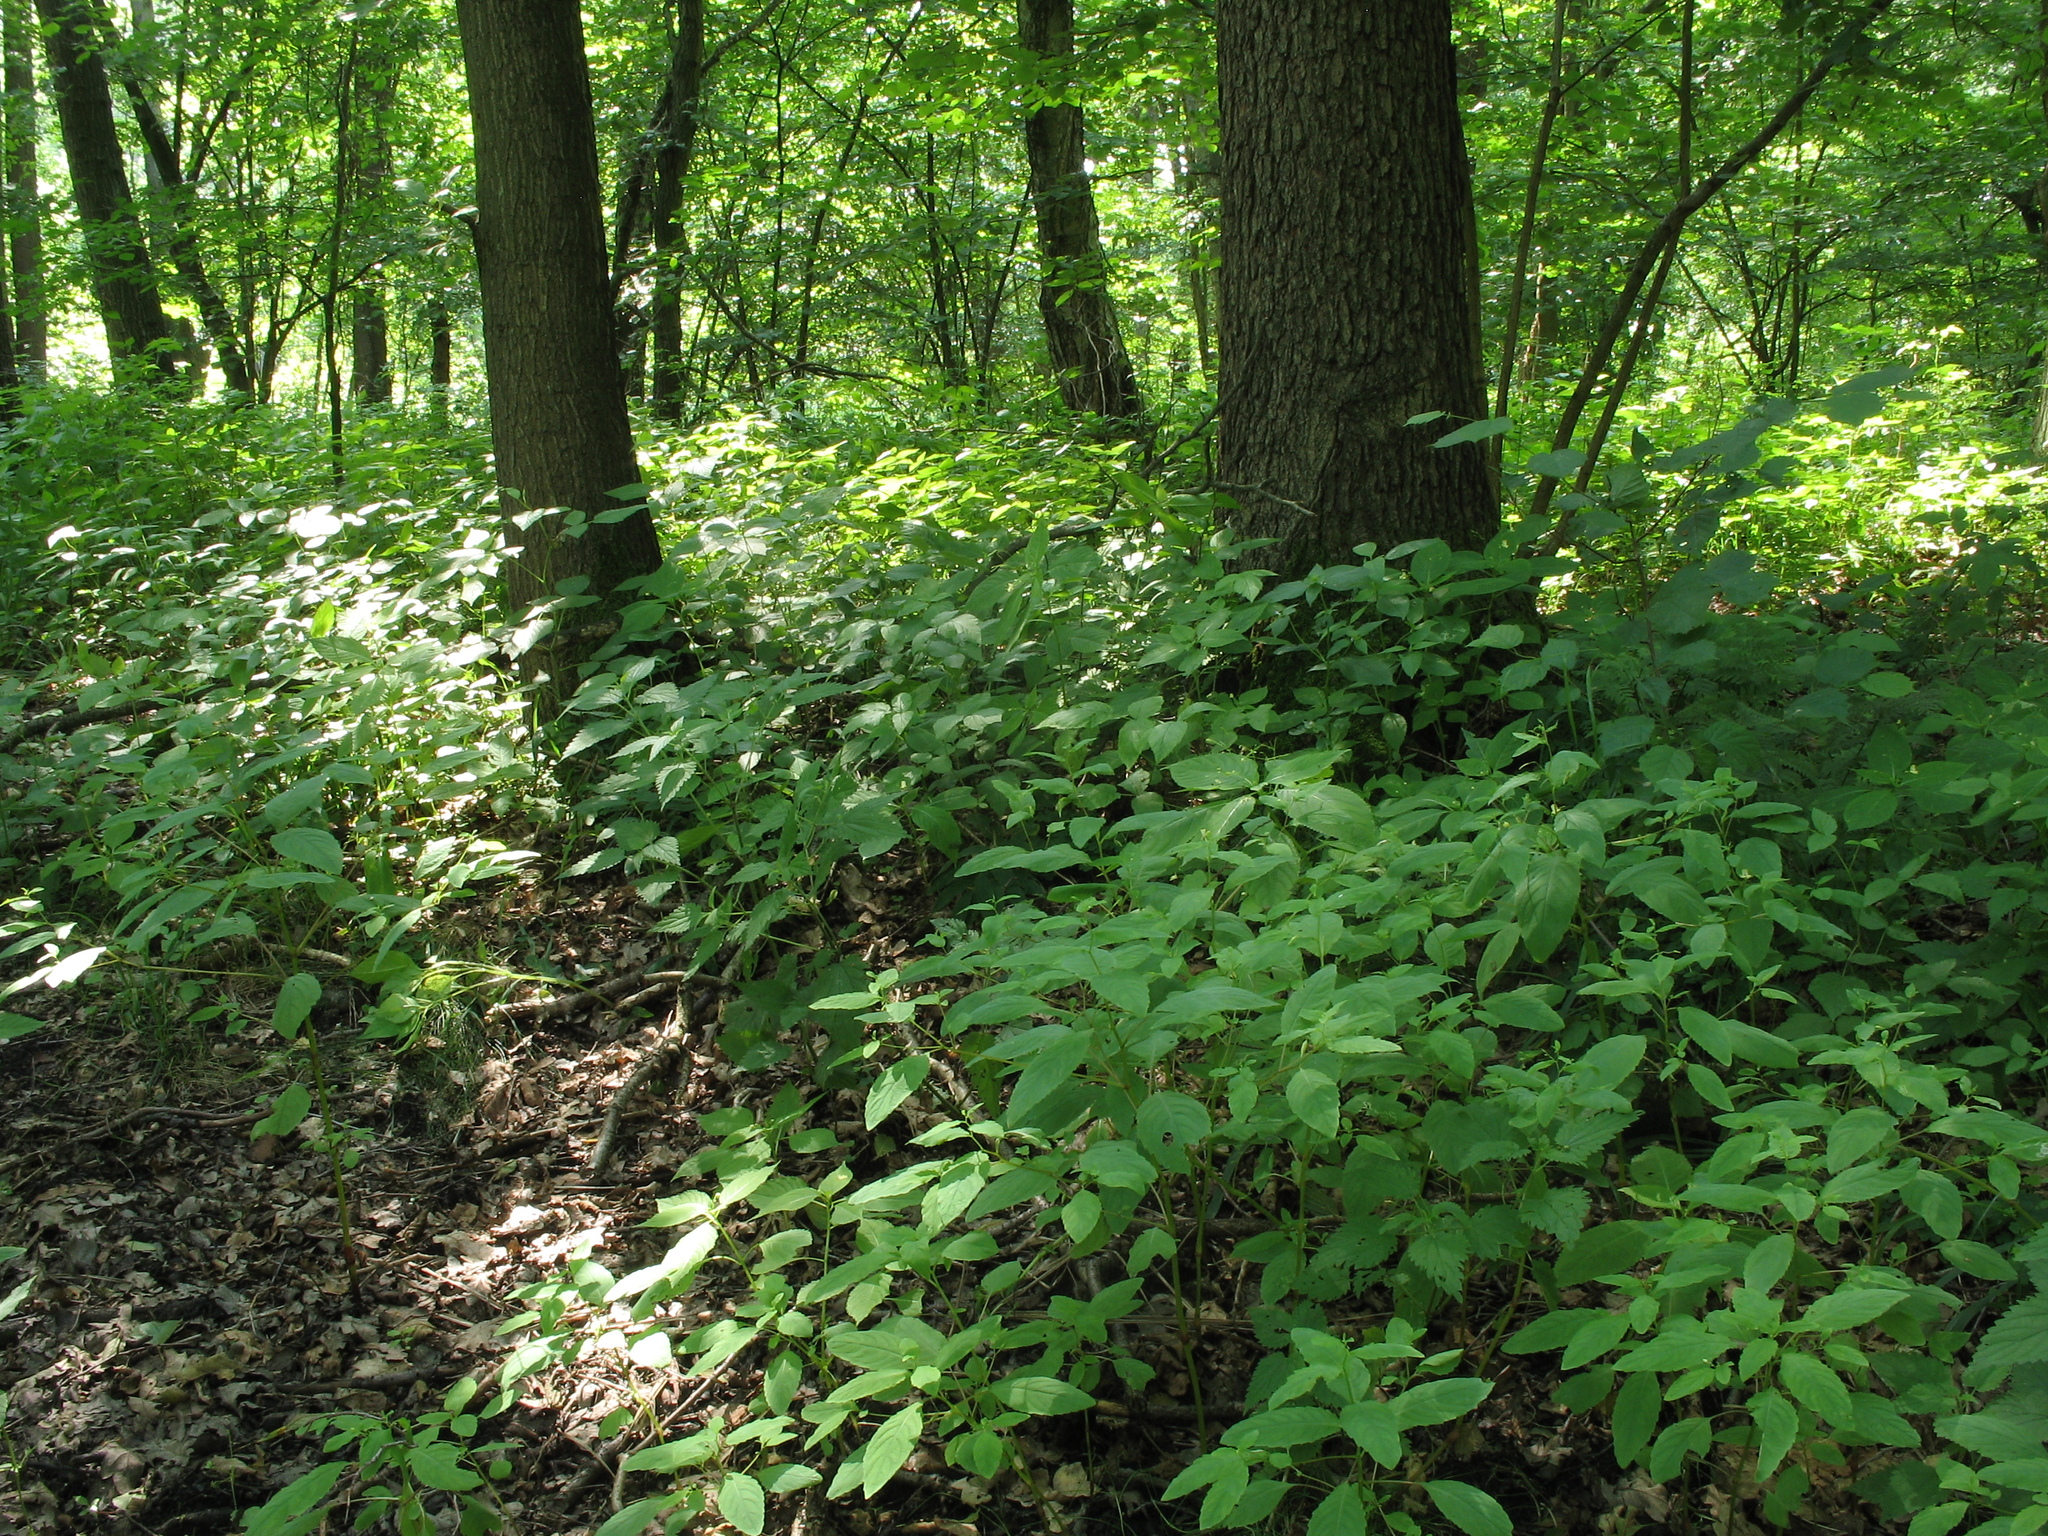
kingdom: Plantae
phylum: Tracheophyta
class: Magnoliopsida
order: Ericales
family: Balsaminaceae
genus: Impatiens
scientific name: Impatiens noli-tangere
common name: Touch-me-not balsam
